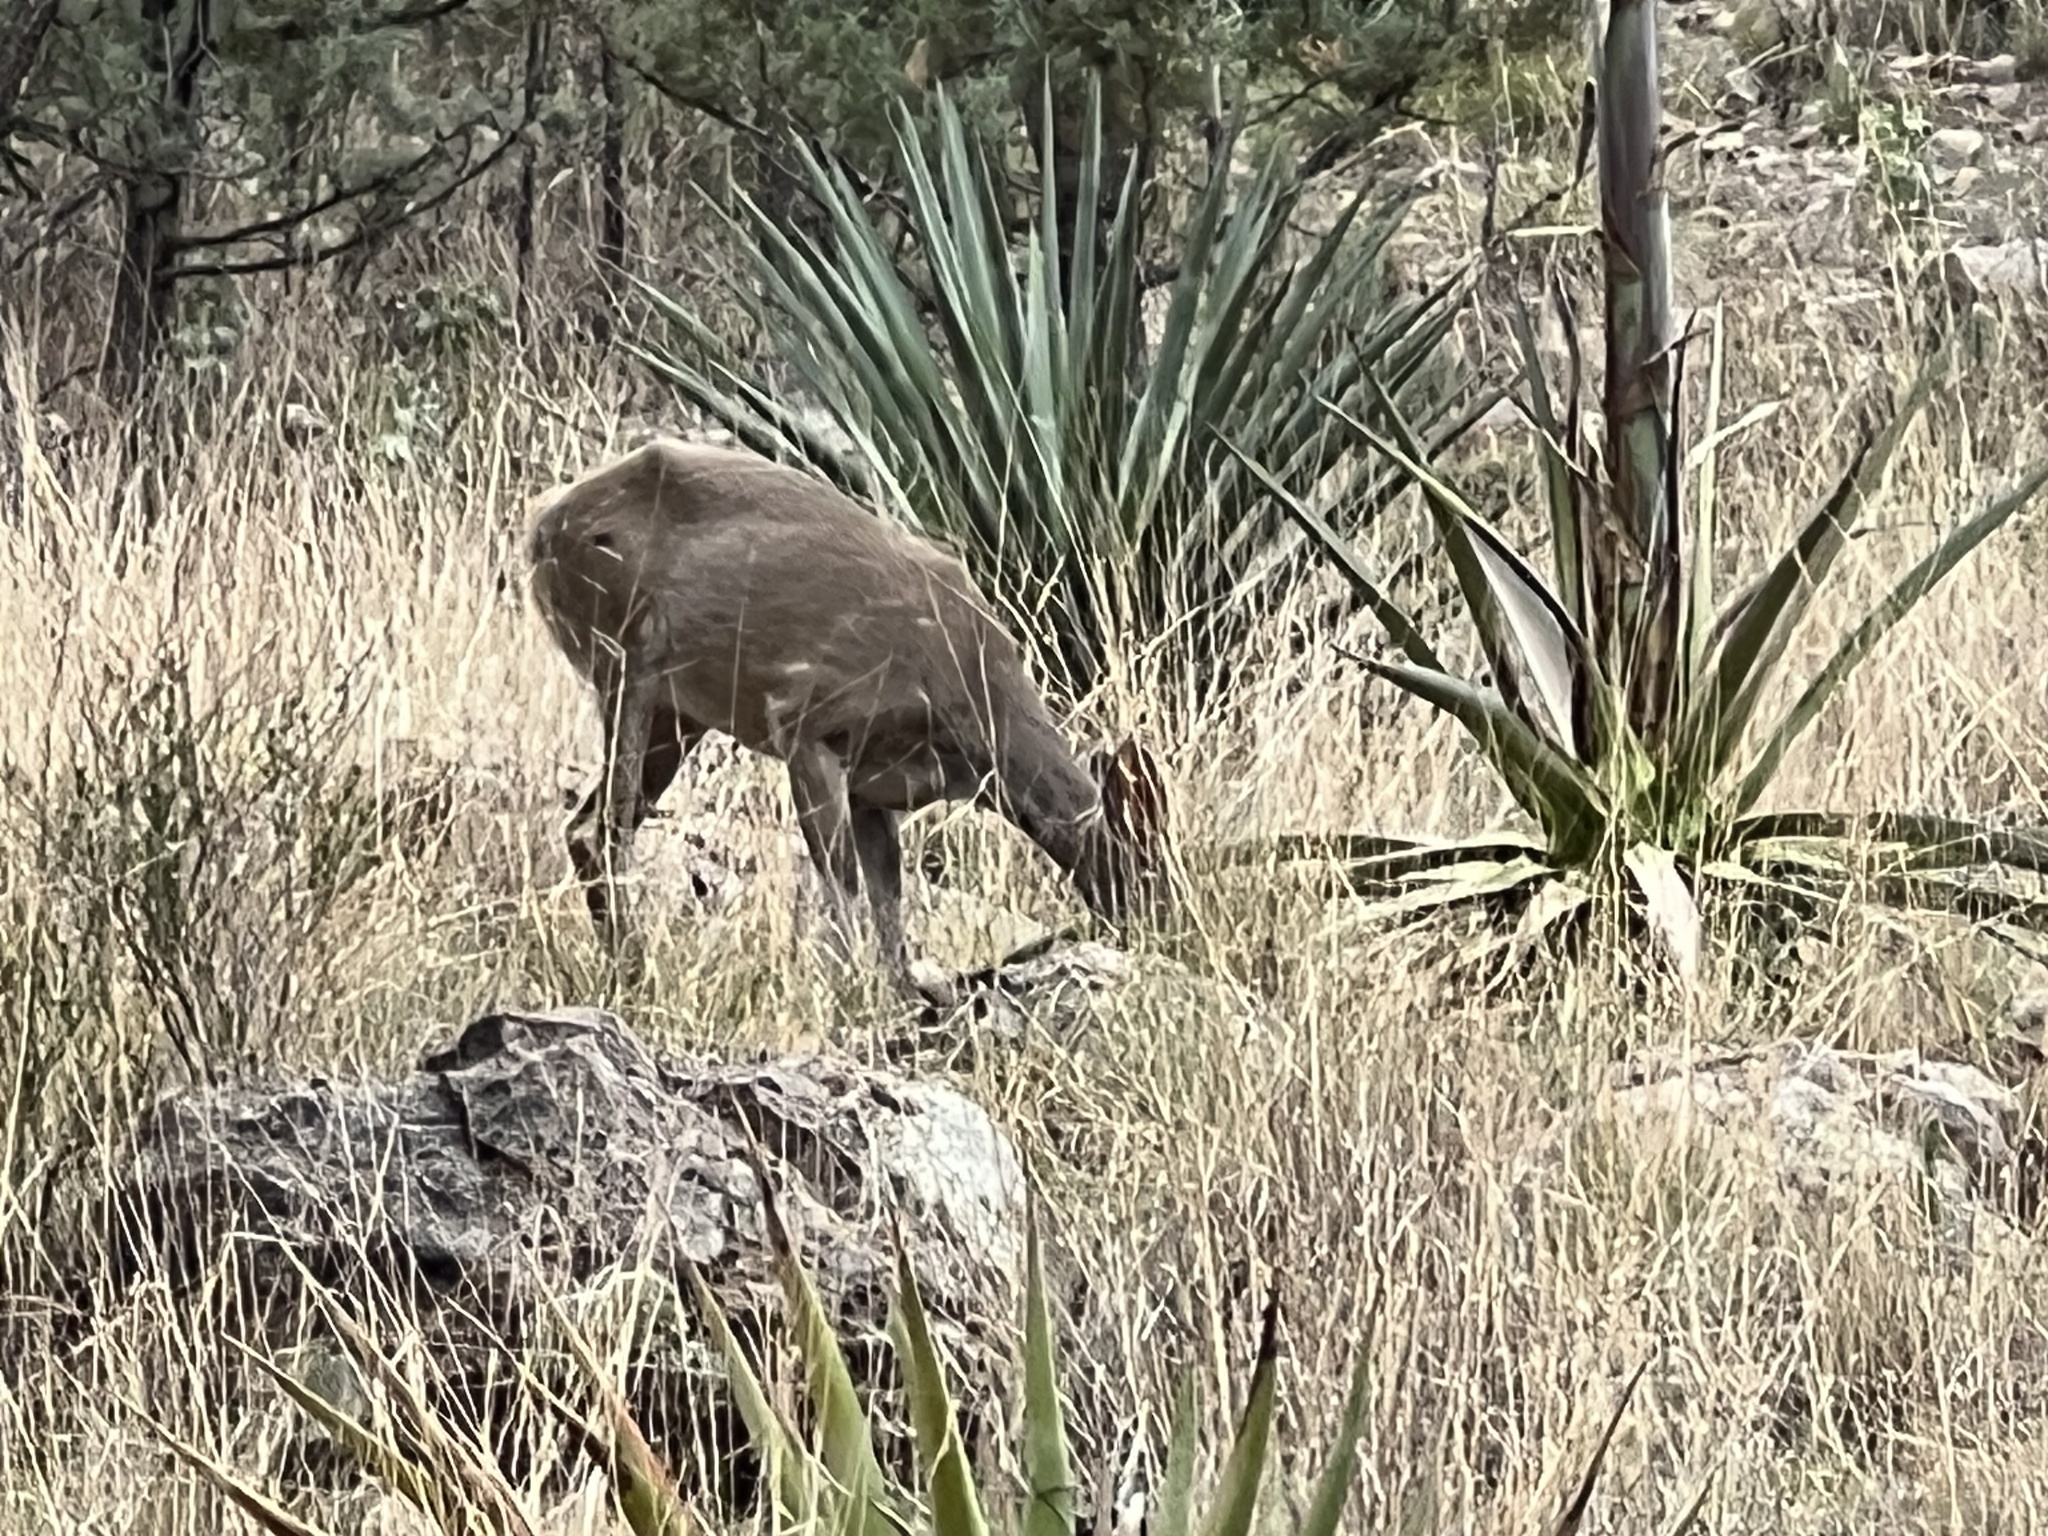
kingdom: Animalia
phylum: Chordata
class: Mammalia
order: Artiodactyla
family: Cervidae
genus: Odocoileus
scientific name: Odocoileus virginianus
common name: White-tailed deer
